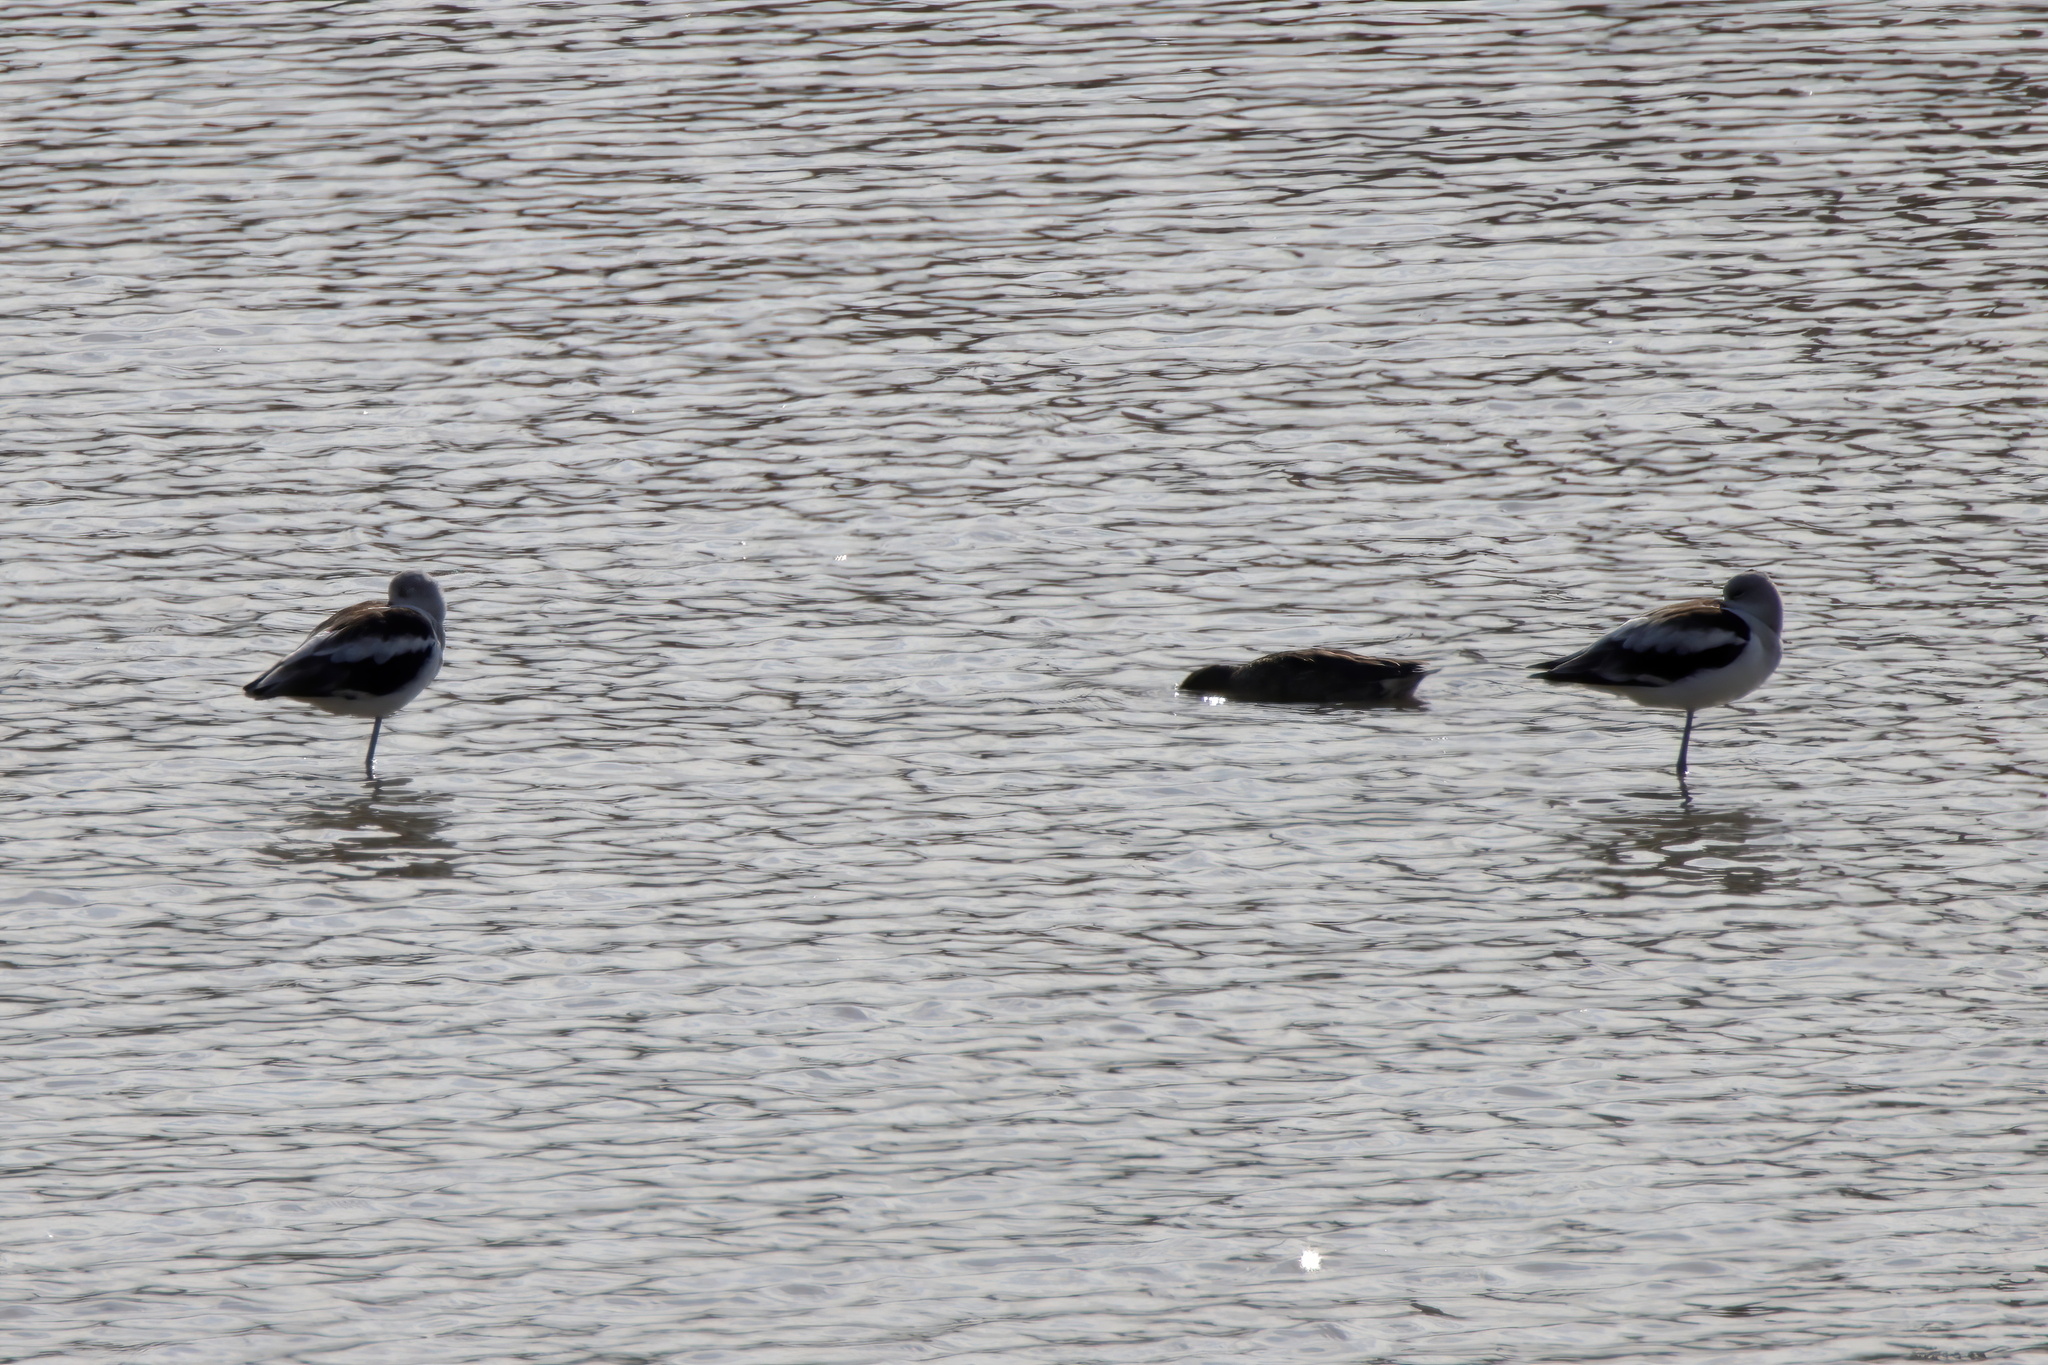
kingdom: Animalia
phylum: Chordata
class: Aves
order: Charadriiformes
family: Recurvirostridae
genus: Recurvirostra
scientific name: Recurvirostra americana
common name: American avocet
